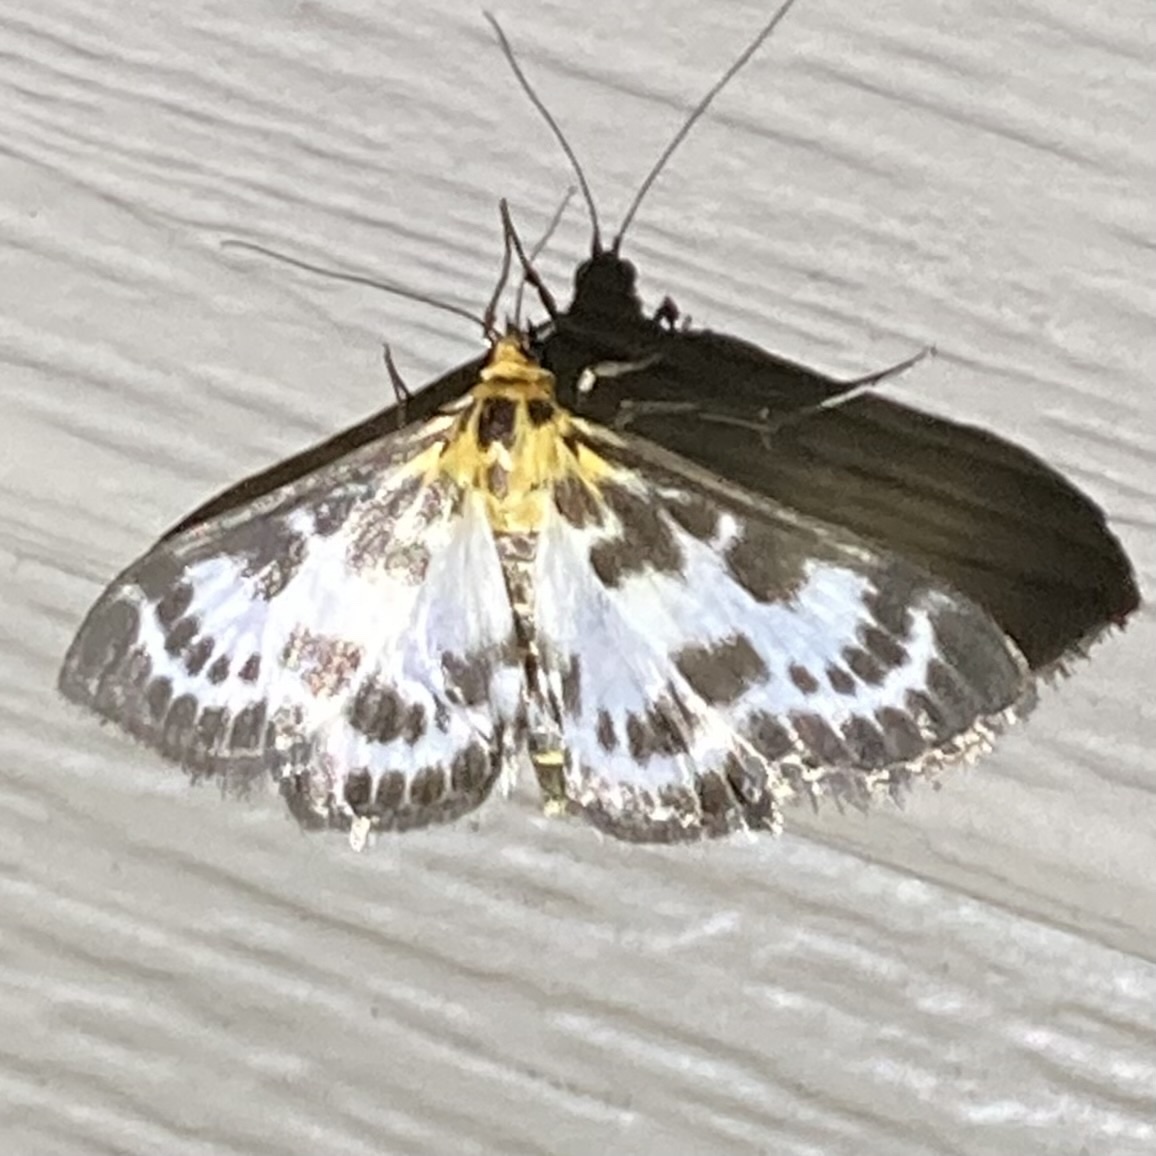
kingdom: Animalia
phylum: Arthropoda
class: Insecta
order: Lepidoptera
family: Crambidae
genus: Anania
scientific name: Anania hortulata
